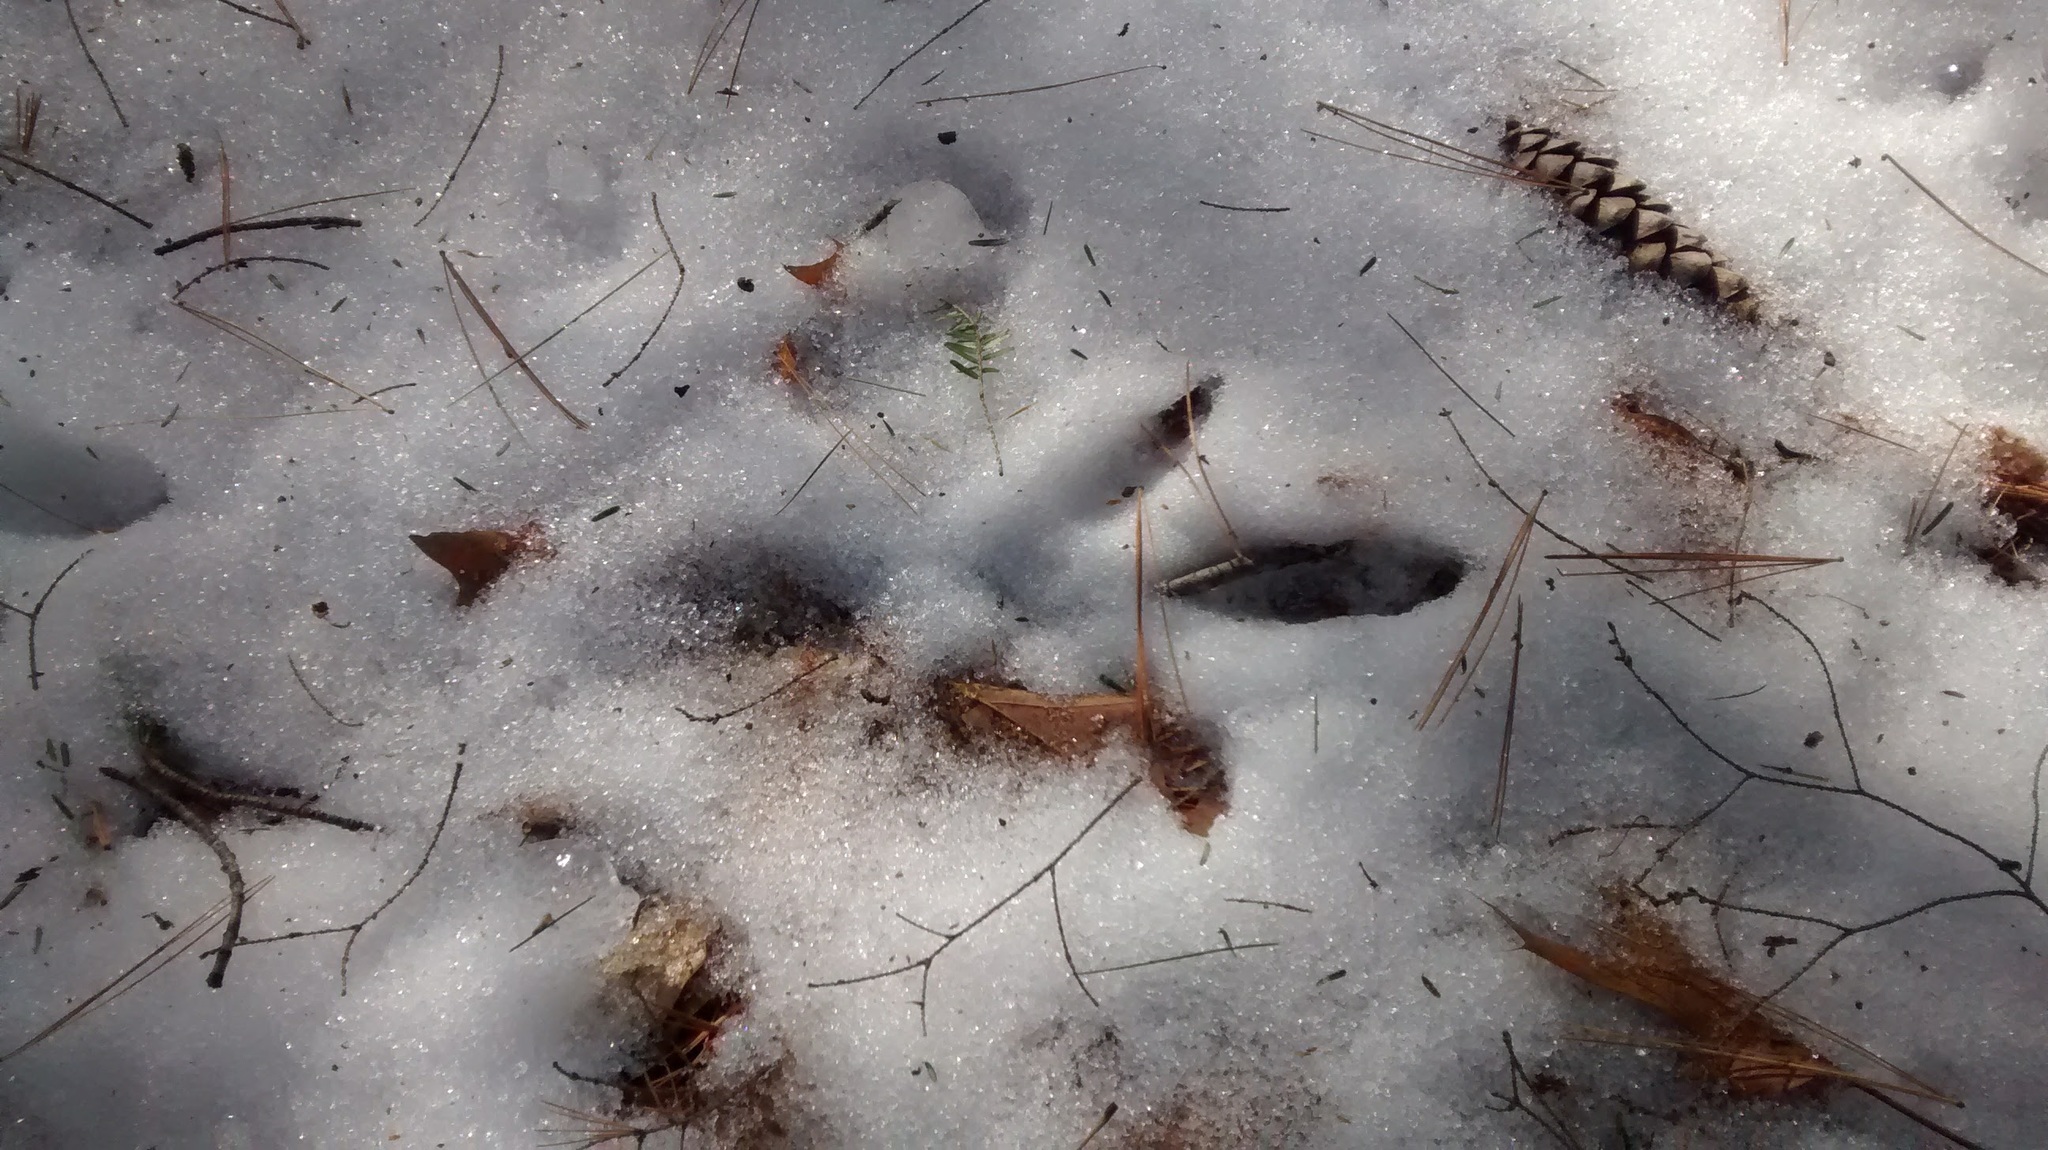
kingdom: Animalia
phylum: Chordata
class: Aves
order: Galliformes
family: Phasianidae
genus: Meleagris
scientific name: Meleagris gallopavo
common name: Wild turkey
